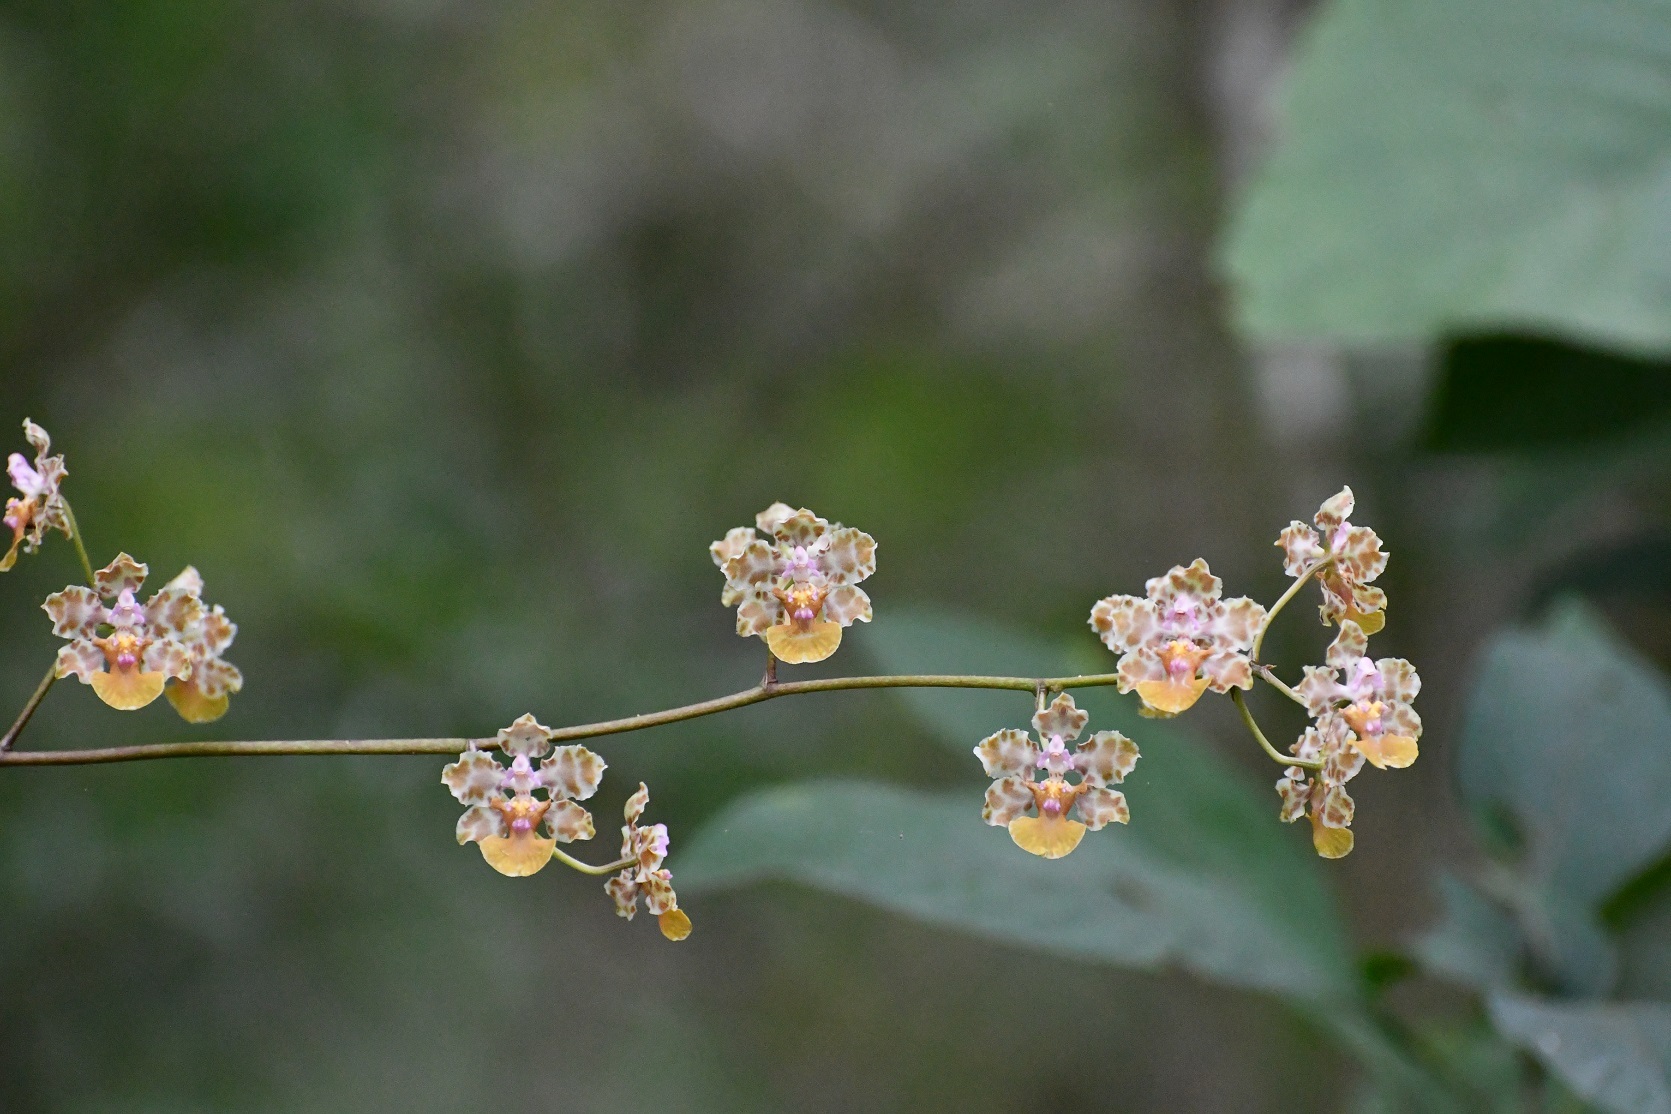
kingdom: Plantae
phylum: Tracheophyta
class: Liliopsida
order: Asparagales
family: Orchidaceae
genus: Trichocentrum
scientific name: Trichocentrum andreanum
